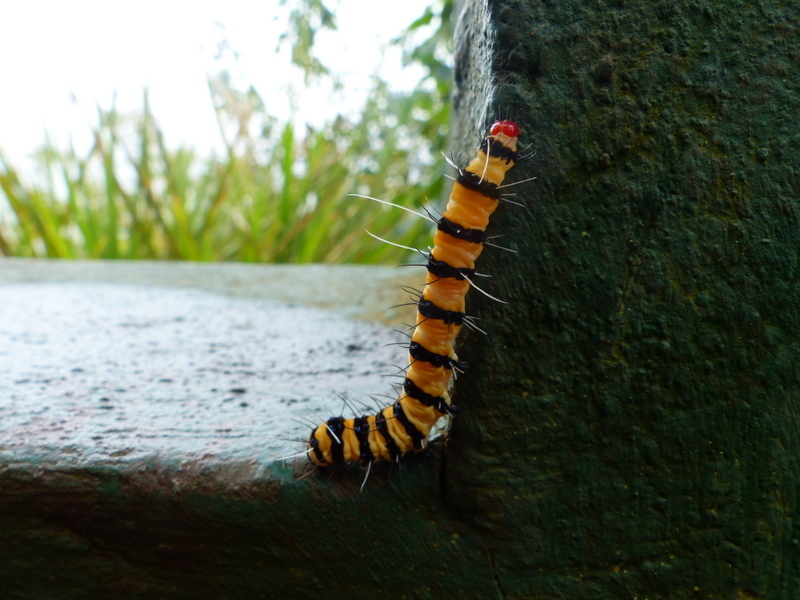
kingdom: Animalia
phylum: Arthropoda
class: Insecta
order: Lepidoptera
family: Erebidae
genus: Alpenus
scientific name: Alpenus maculosa
